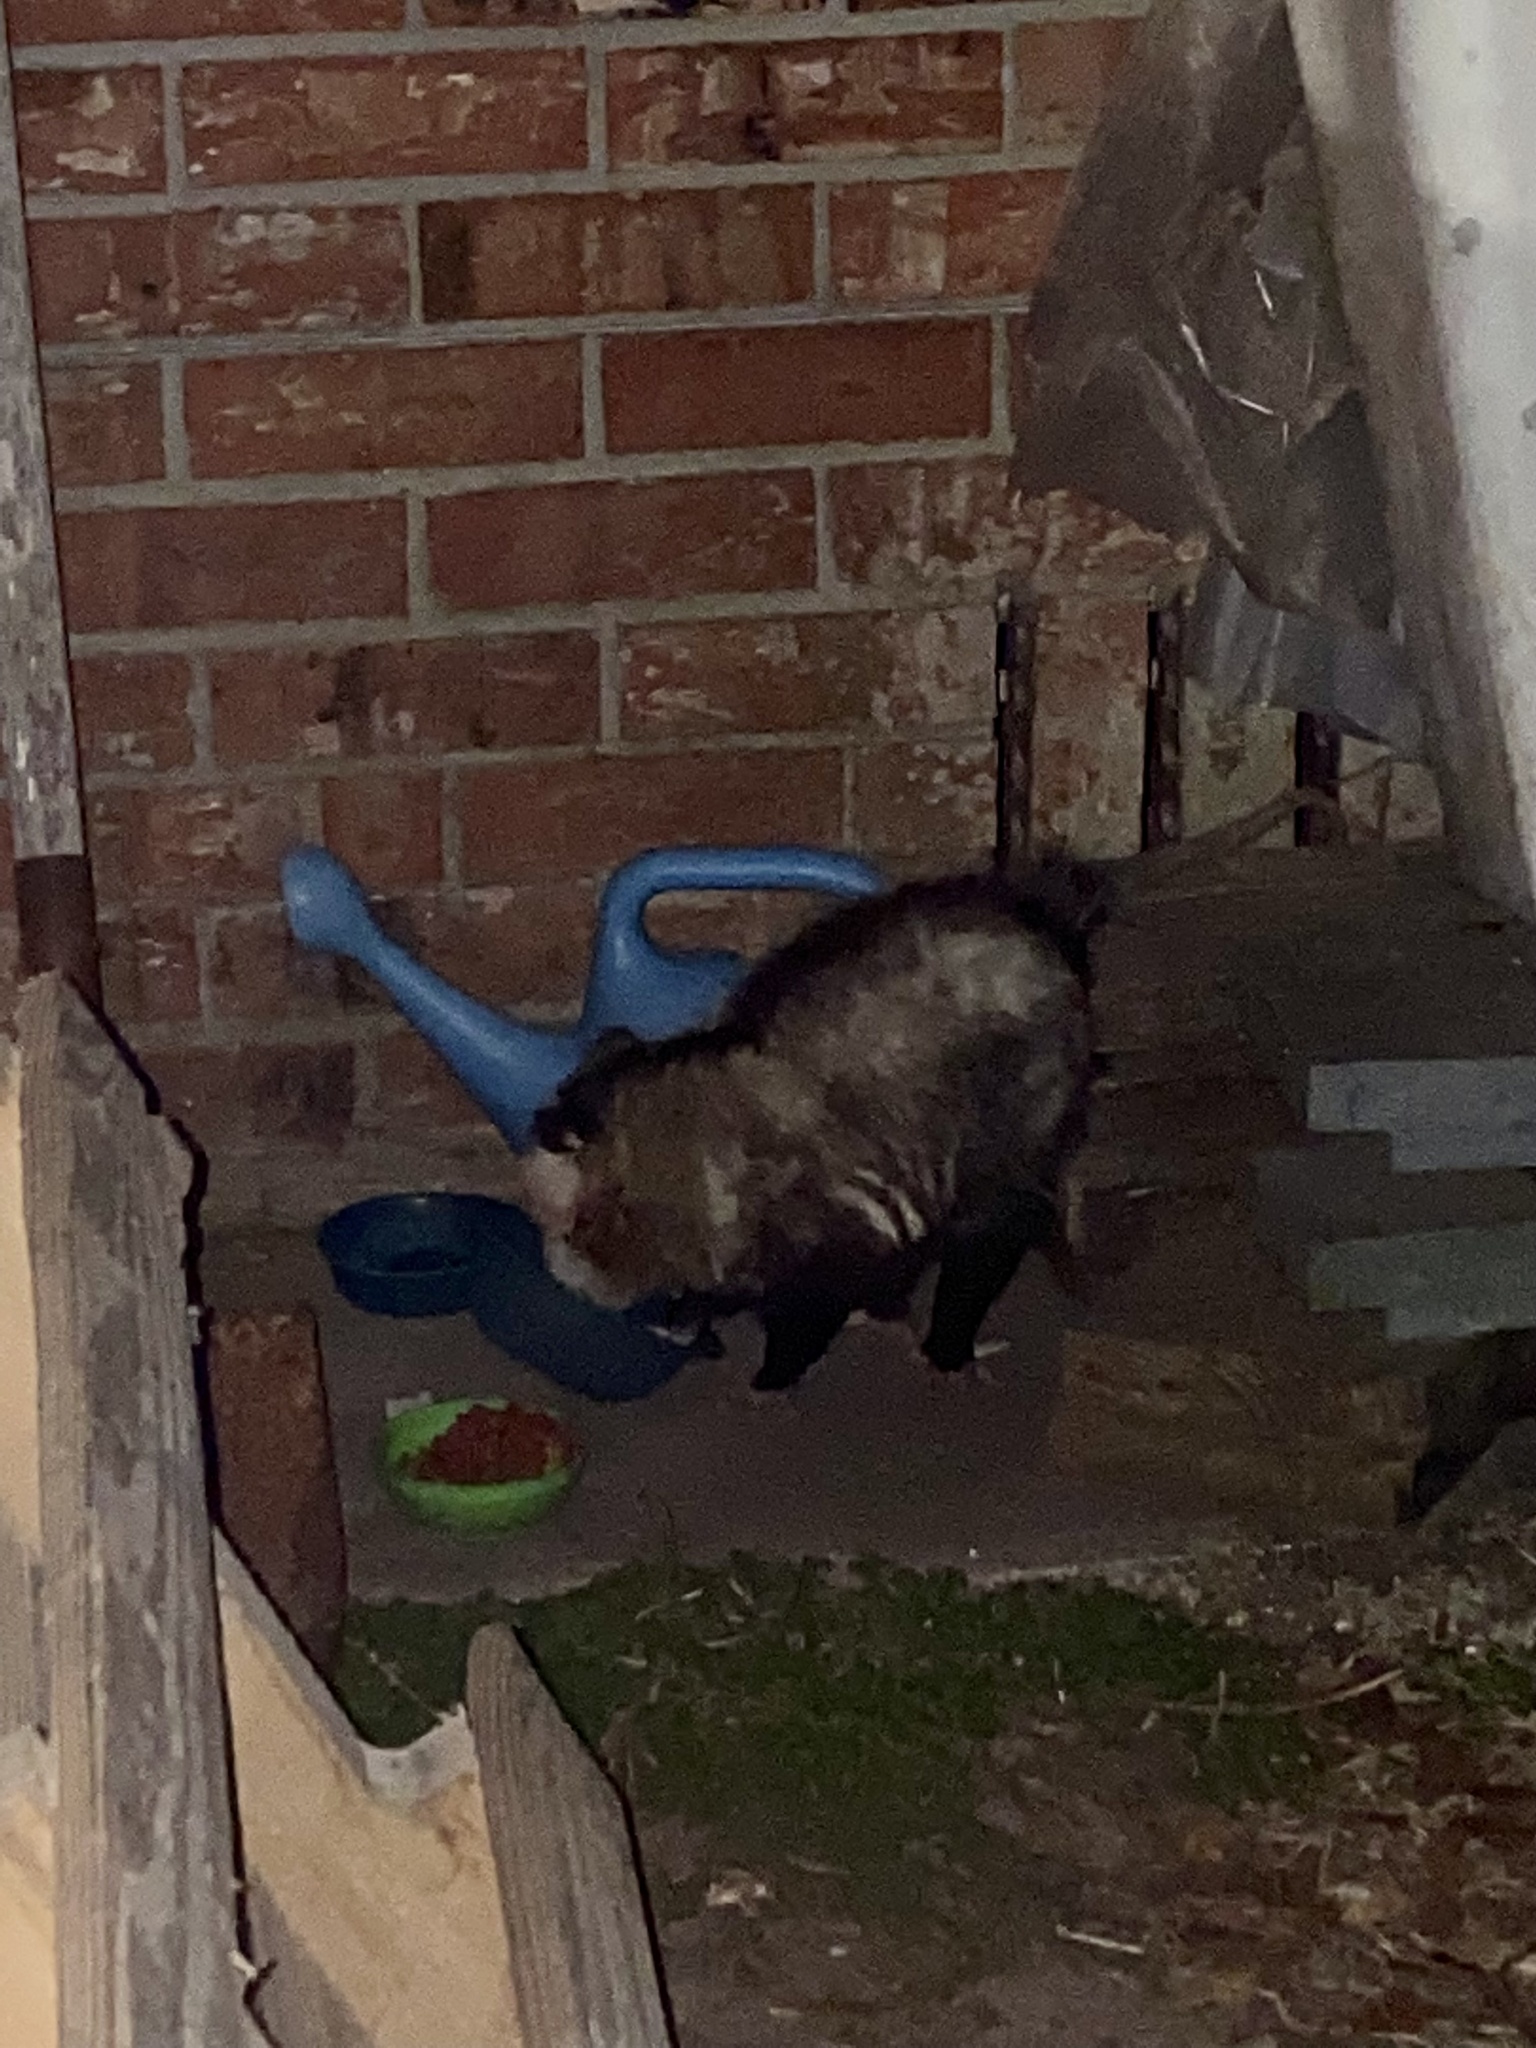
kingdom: Animalia
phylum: Chordata
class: Mammalia
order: Didelphimorphia
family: Didelphidae
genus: Didelphis
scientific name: Didelphis virginiana
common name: Virginia opossum
